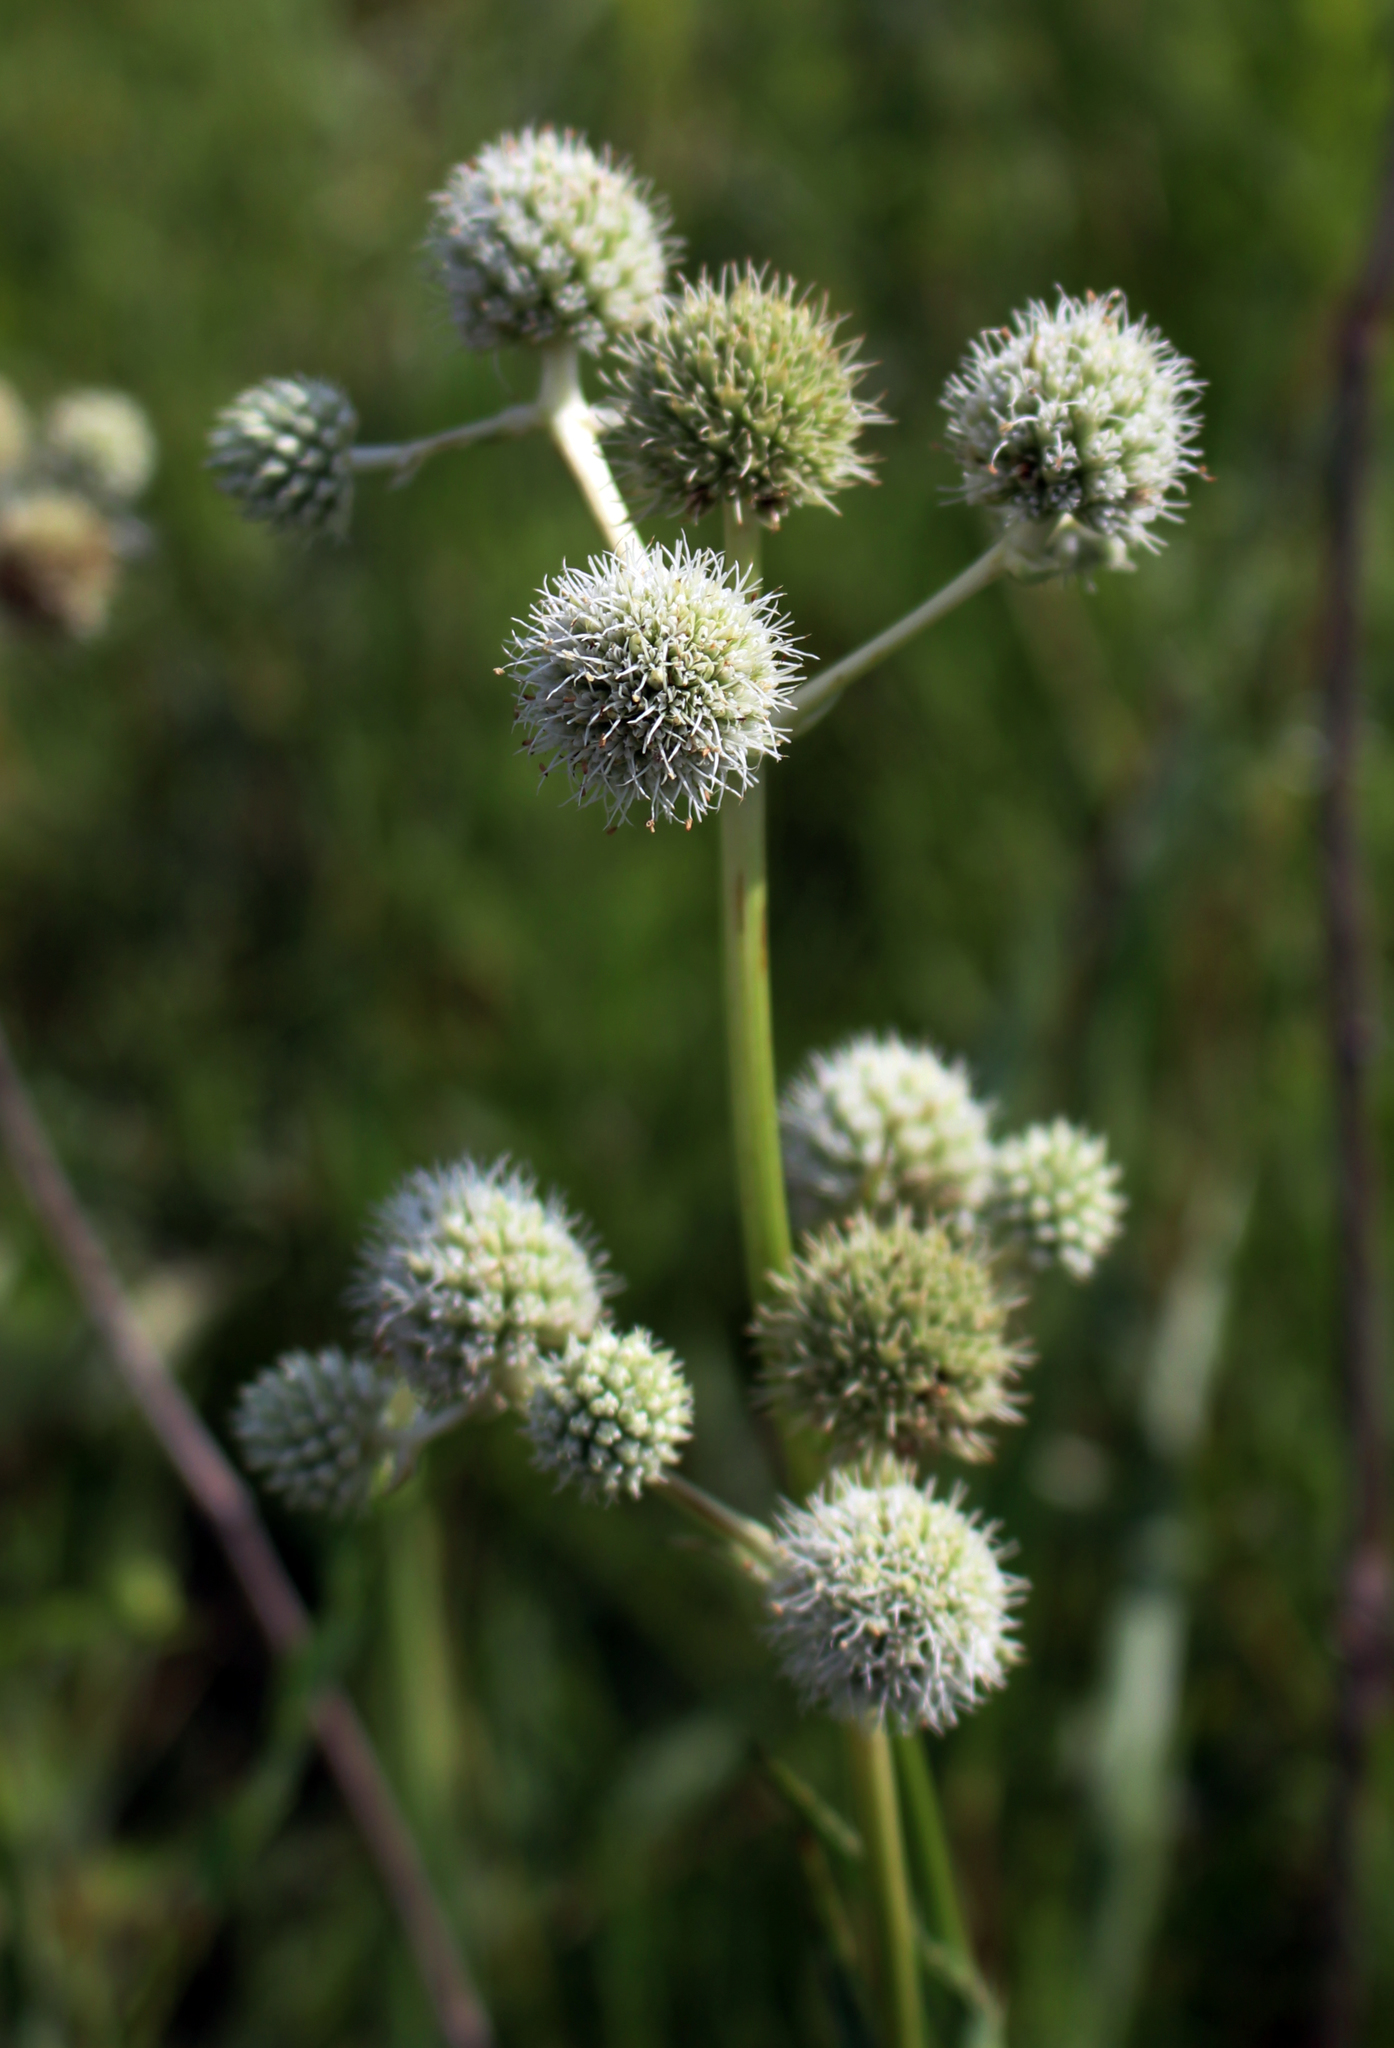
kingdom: Plantae
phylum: Tracheophyta
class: Magnoliopsida
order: Apiales
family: Apiaceae
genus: Eryngium
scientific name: Eryngium yuccifolium
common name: Button eryngo
